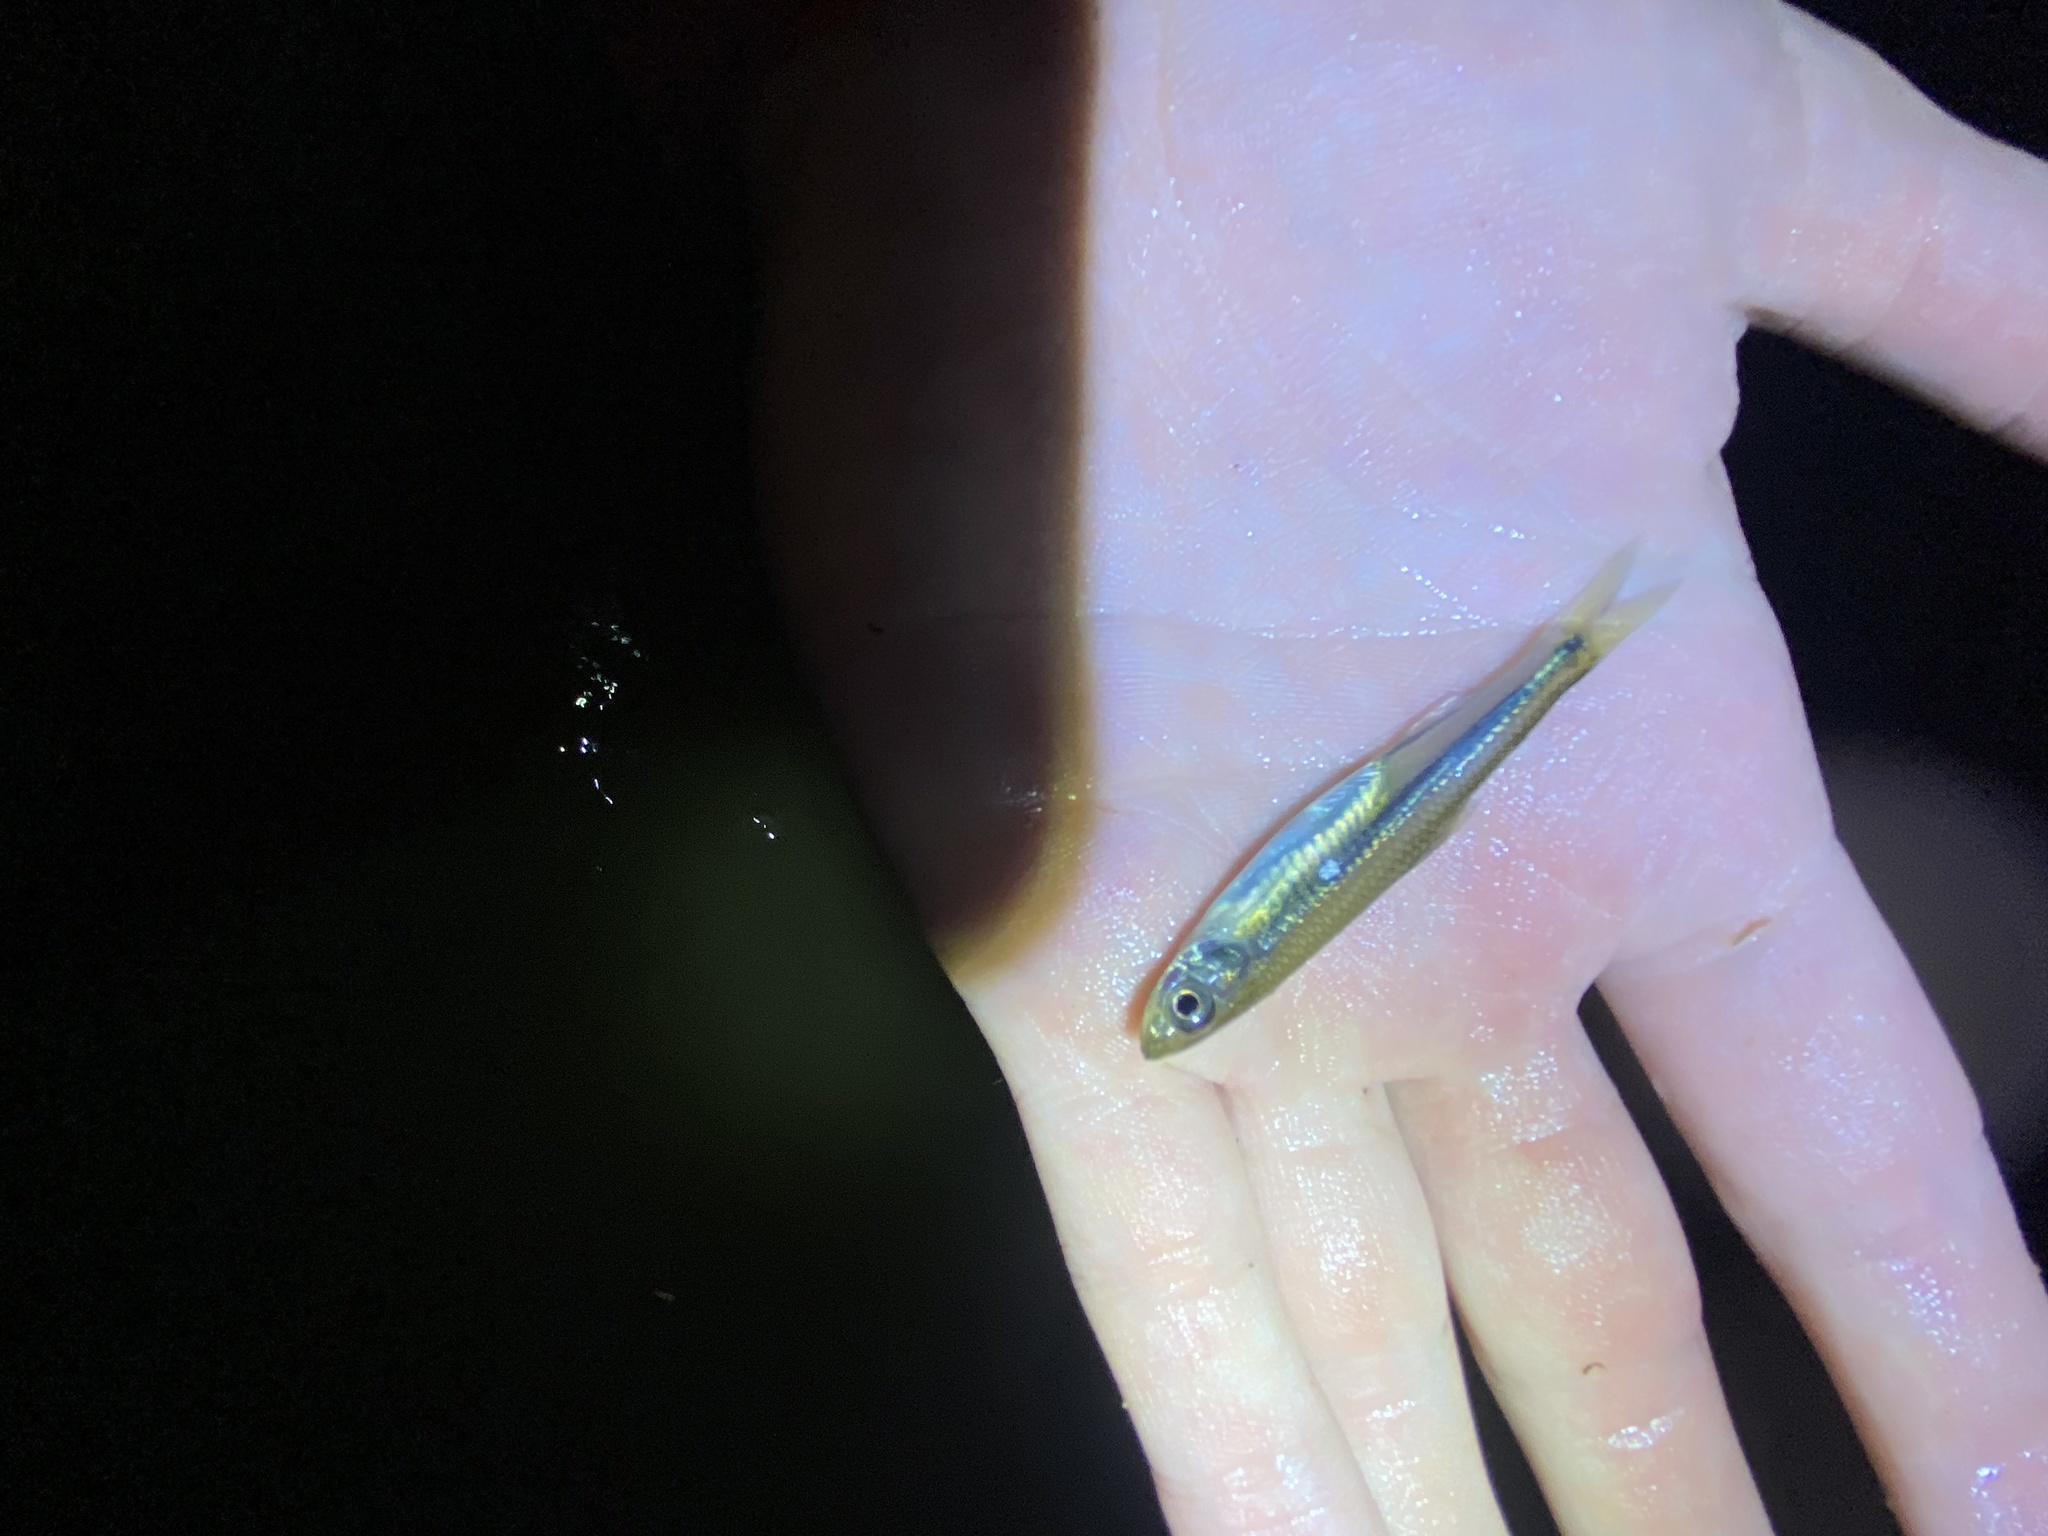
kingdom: Animalia
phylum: Chordata
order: Cypriniformes
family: Cyprinidae
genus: Notropis
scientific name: Notropis amoenus
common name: Comely shiner
